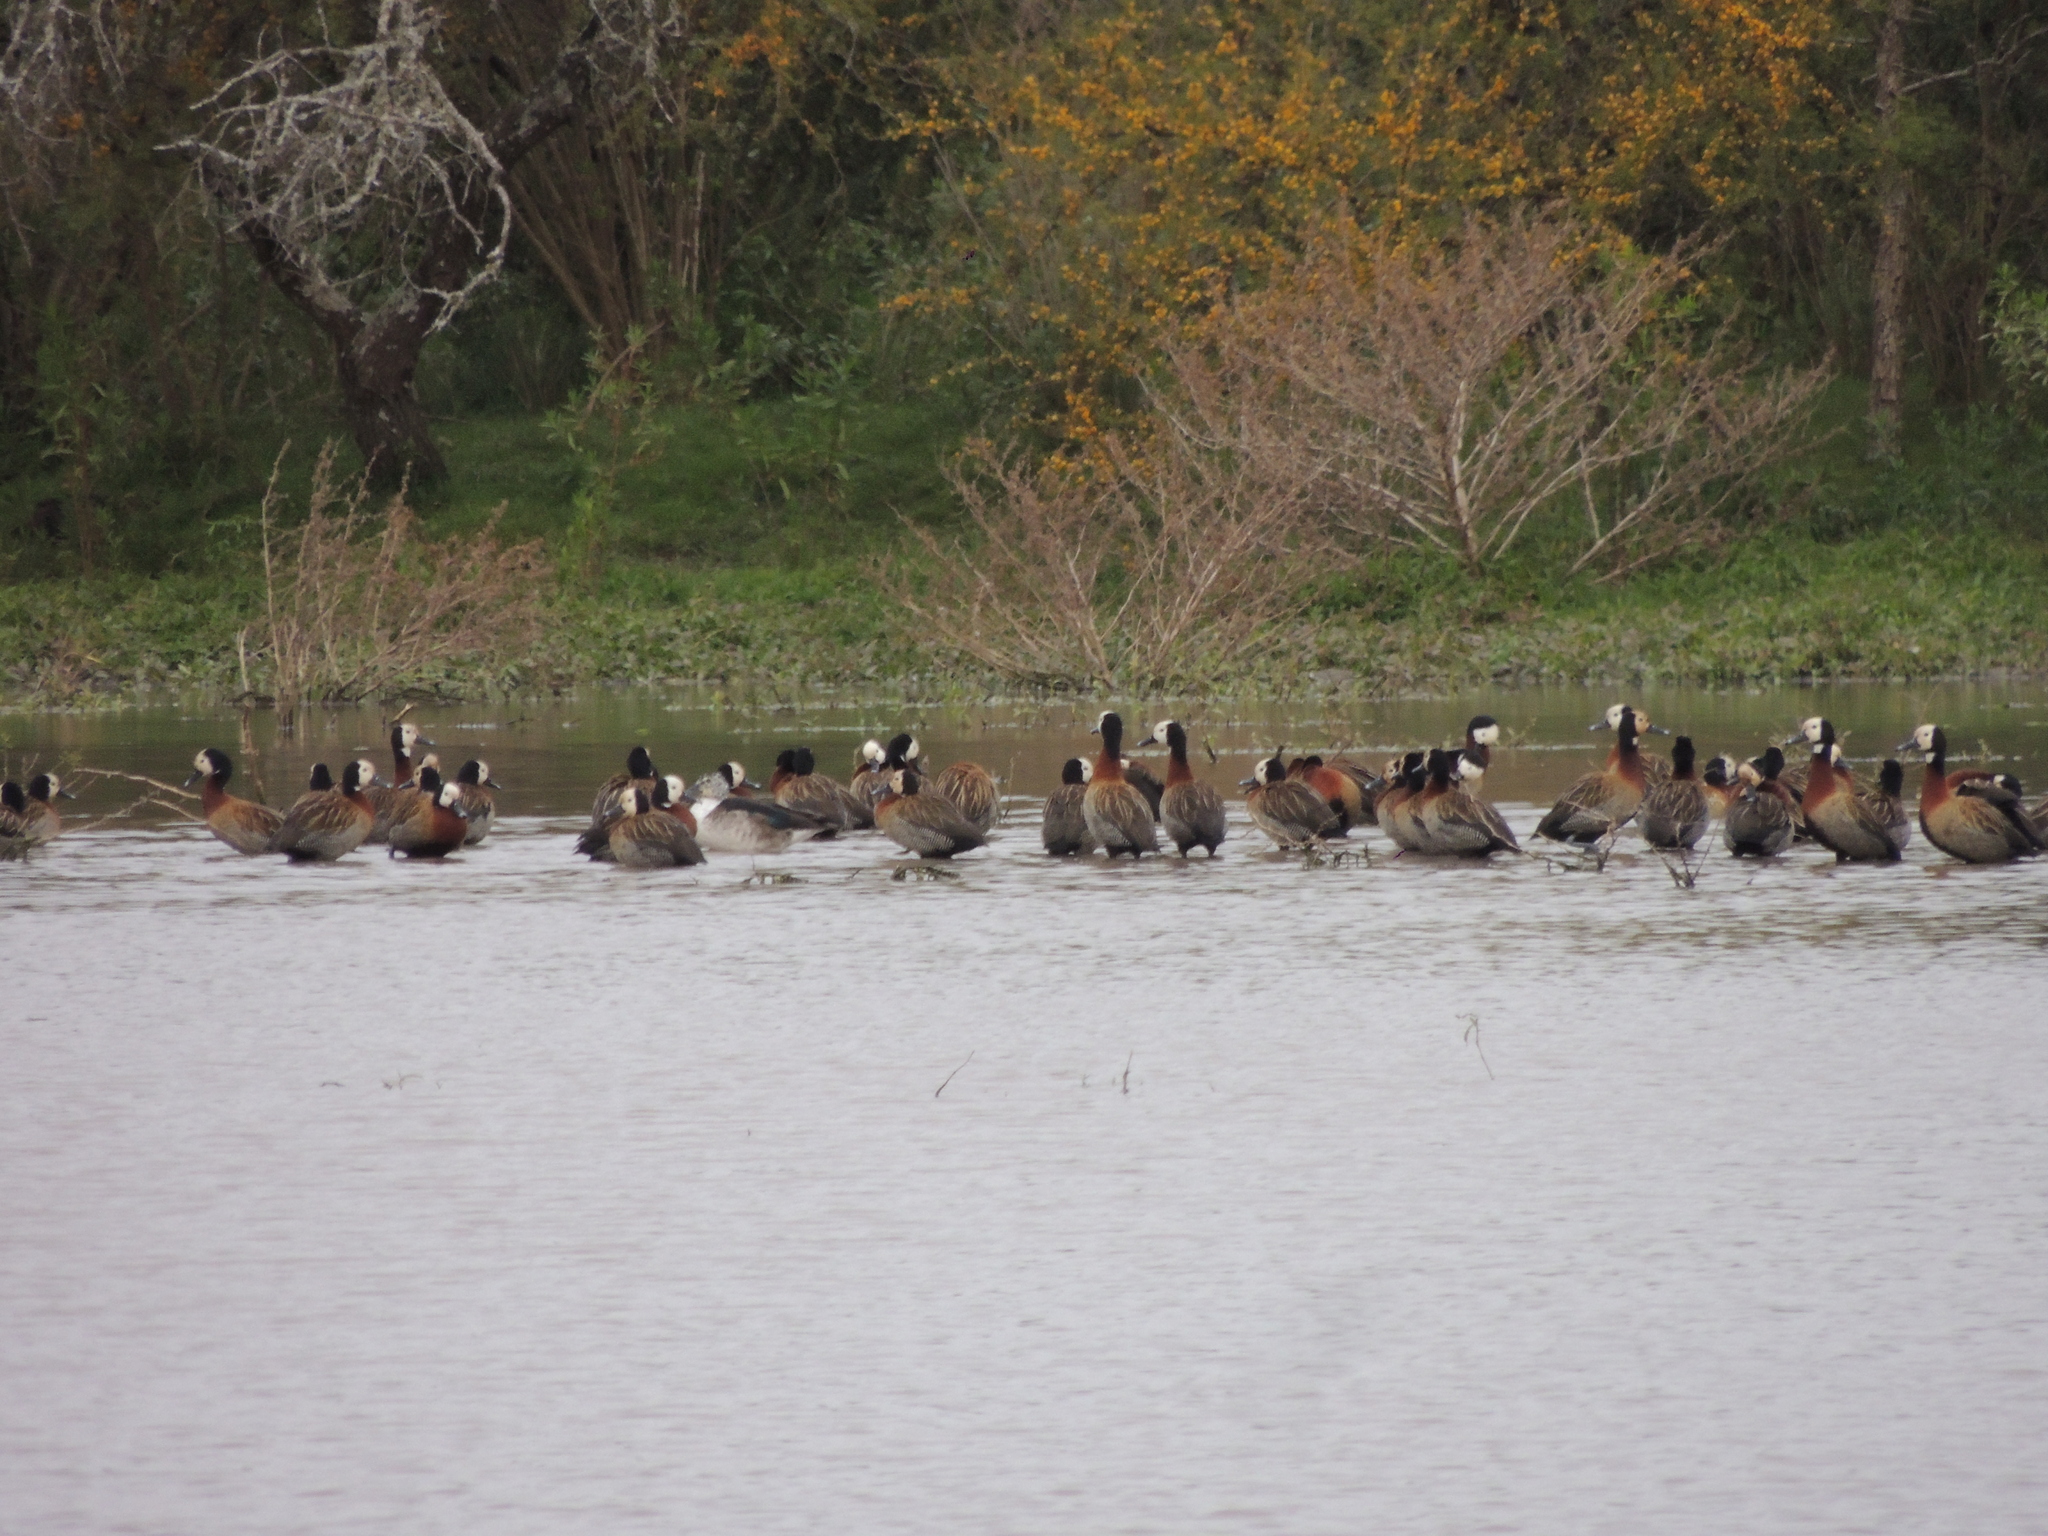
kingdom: Animalia
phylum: Chordata
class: Aves
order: Anseriformes
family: Anatidae
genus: Dendrocygna
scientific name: Dendrocygna viduata
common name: White-faced whistling duck
